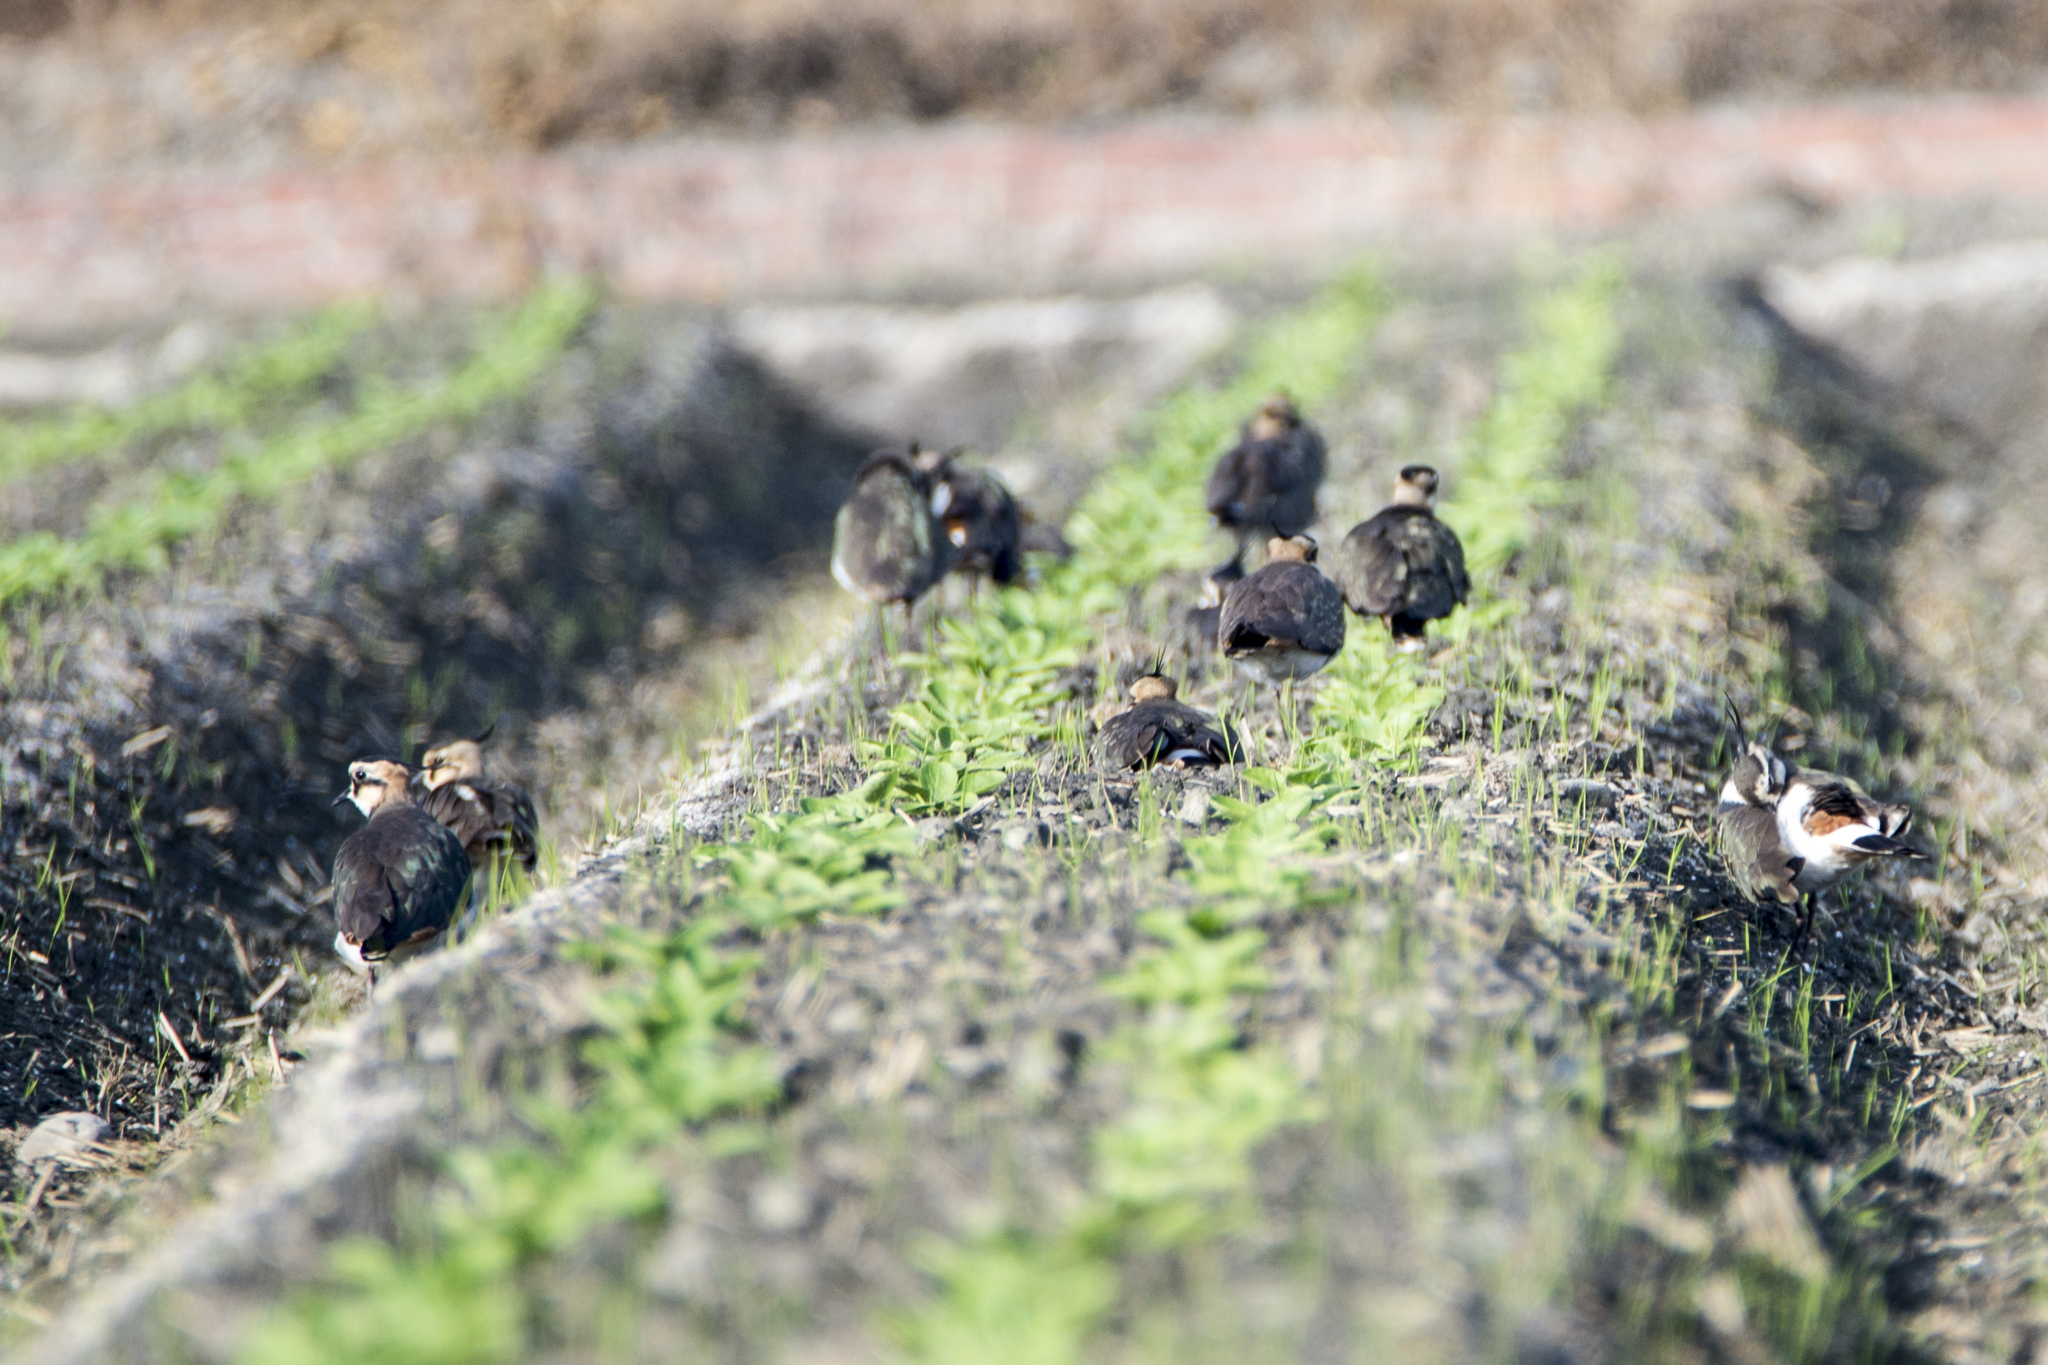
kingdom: Animalia
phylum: Chordata
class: Aves
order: Charadriiformes
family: Charadriidae
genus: Vanellus
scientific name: Vanellus vanellus
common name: Northern lapwing
